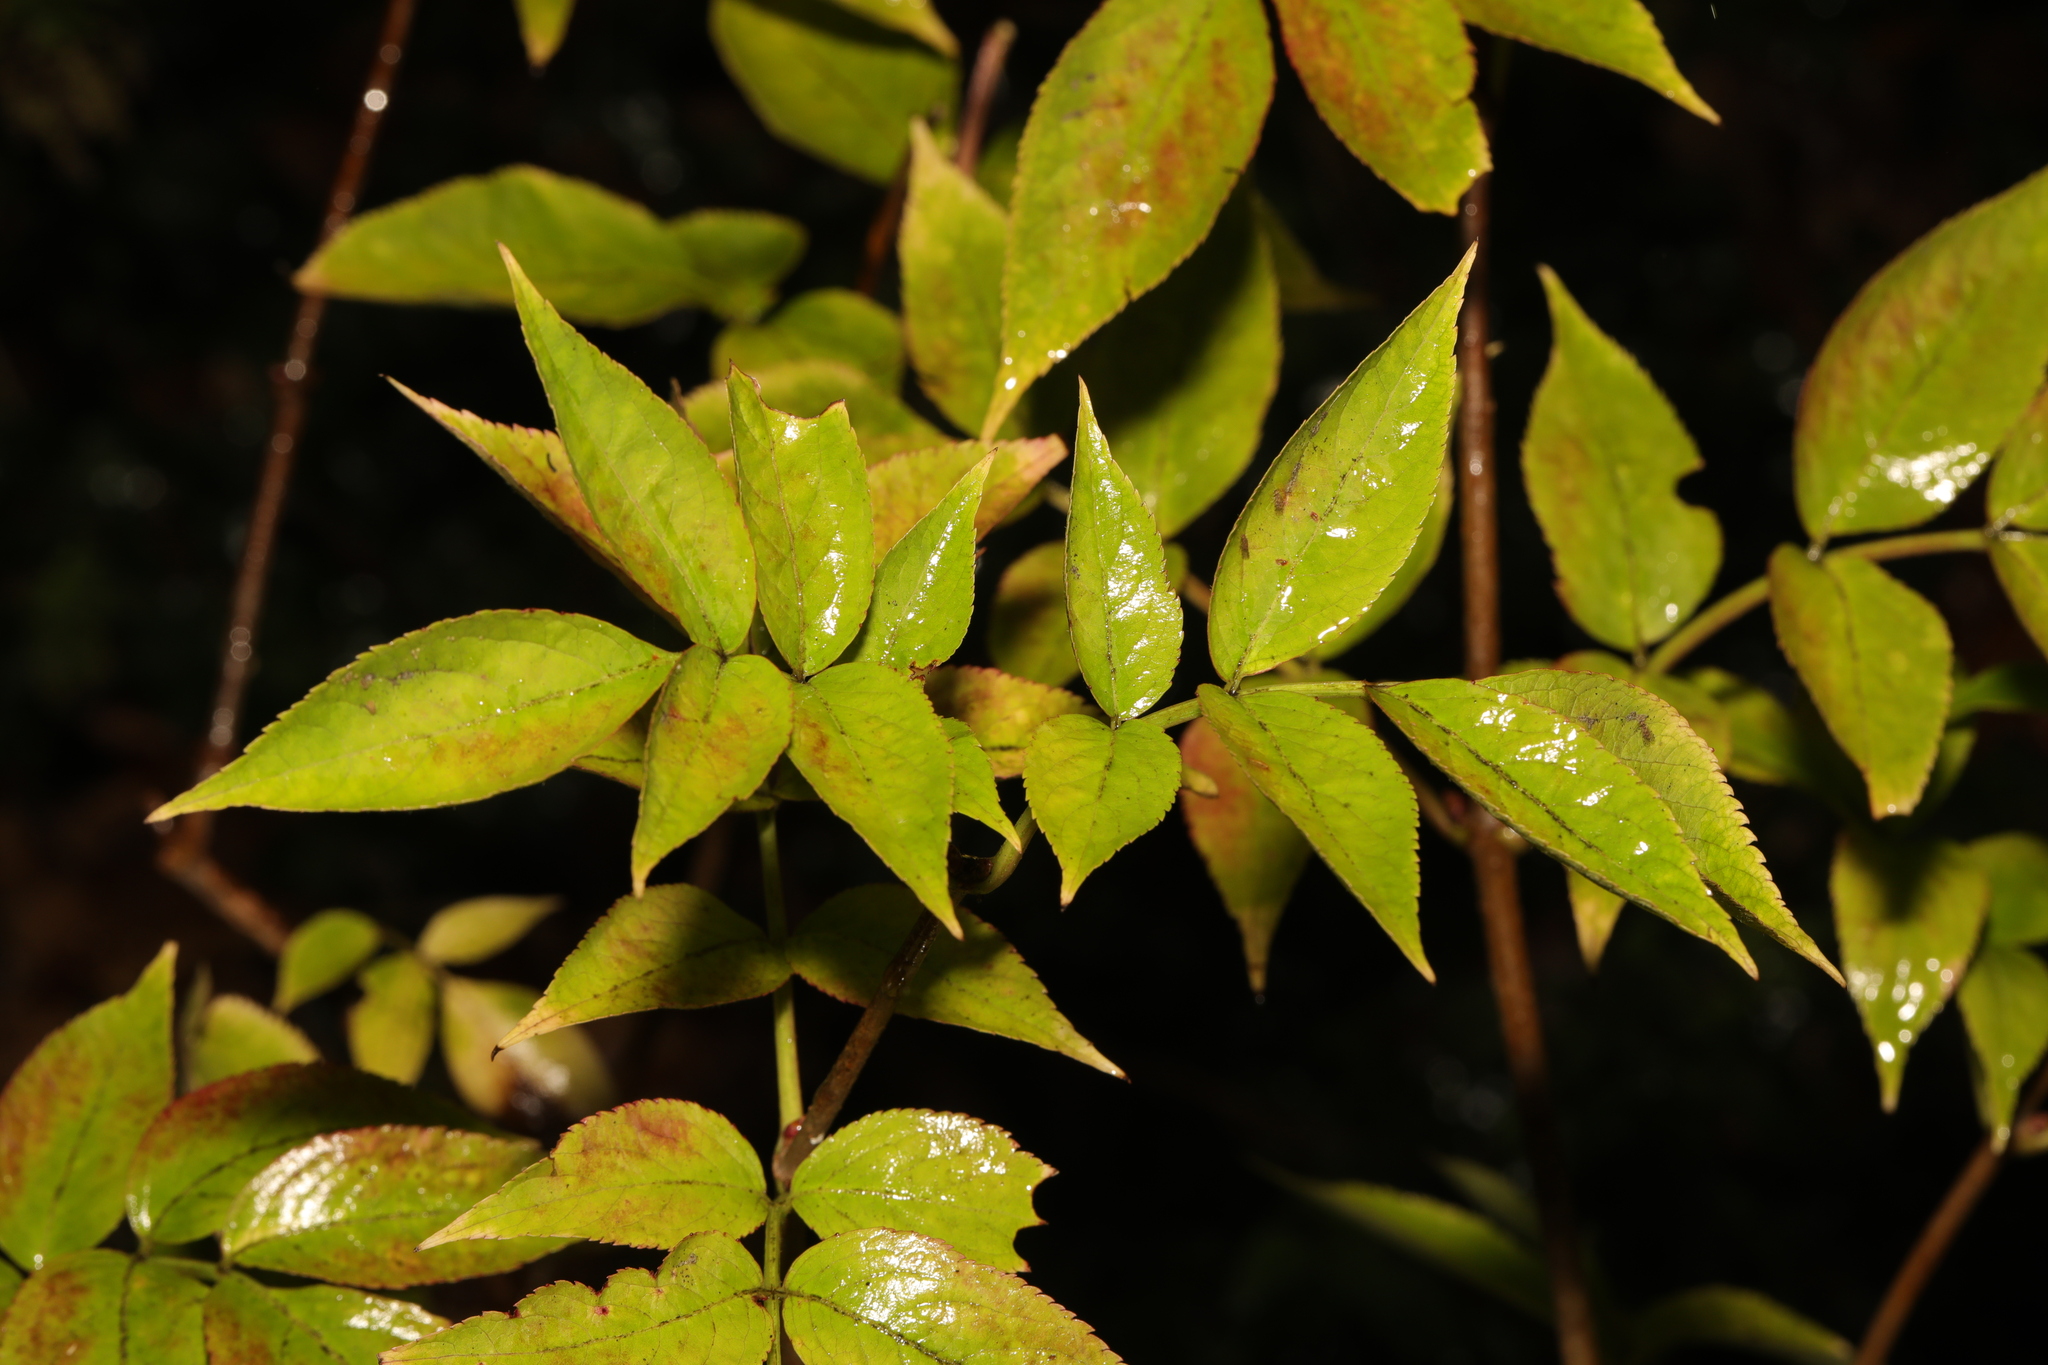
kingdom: Plantae
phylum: Tracheophyta
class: Magnoliopsida
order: Dipsacales
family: Viburnaceae
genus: Sambucus
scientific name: Sambucus nigra
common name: Elder
